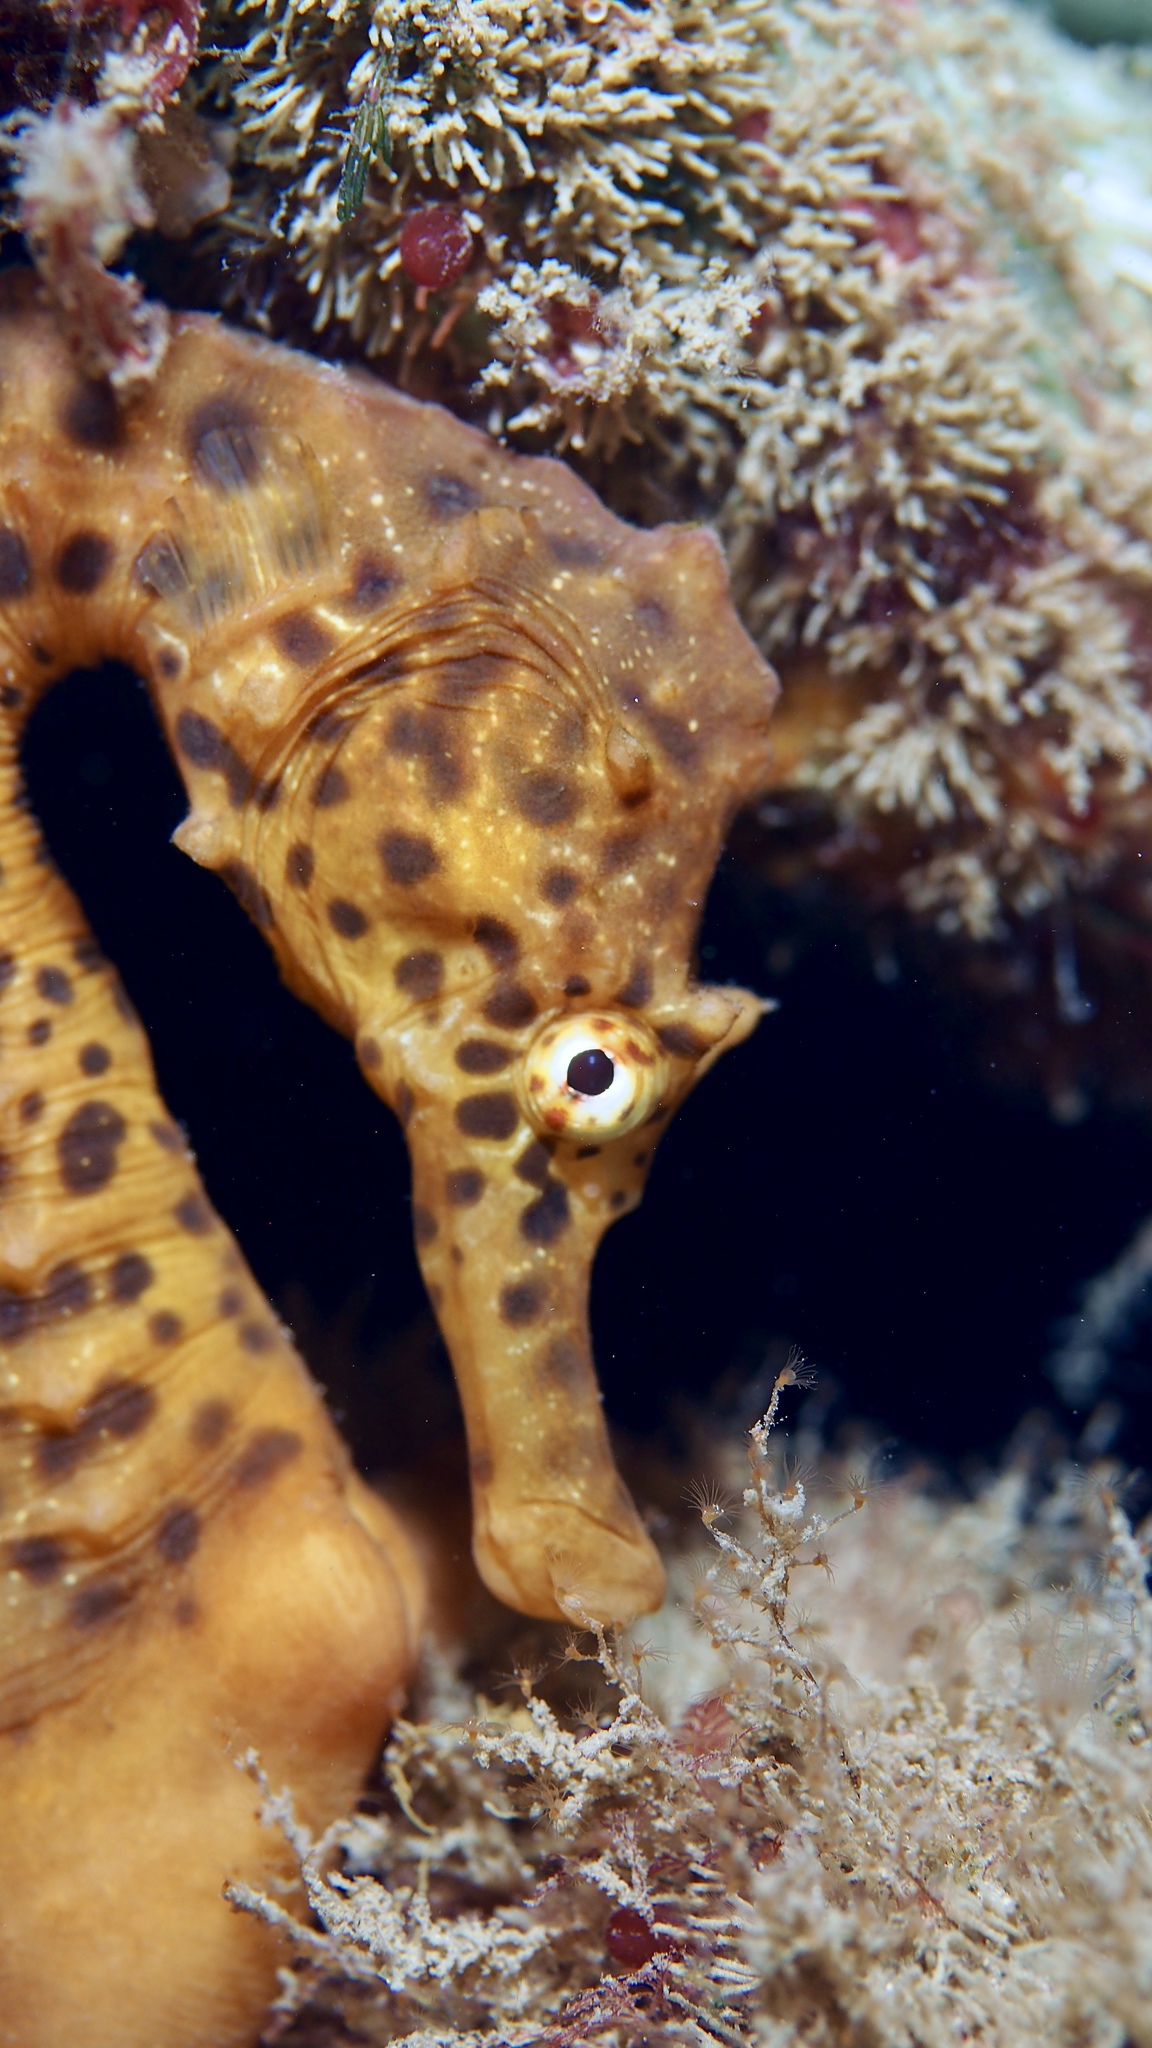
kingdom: Animalia
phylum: Chordata
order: Syngnathiformes
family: Syngnathidae
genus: Hippocampus
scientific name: Hippocampus abdominalis
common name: Big-belly seahorse
